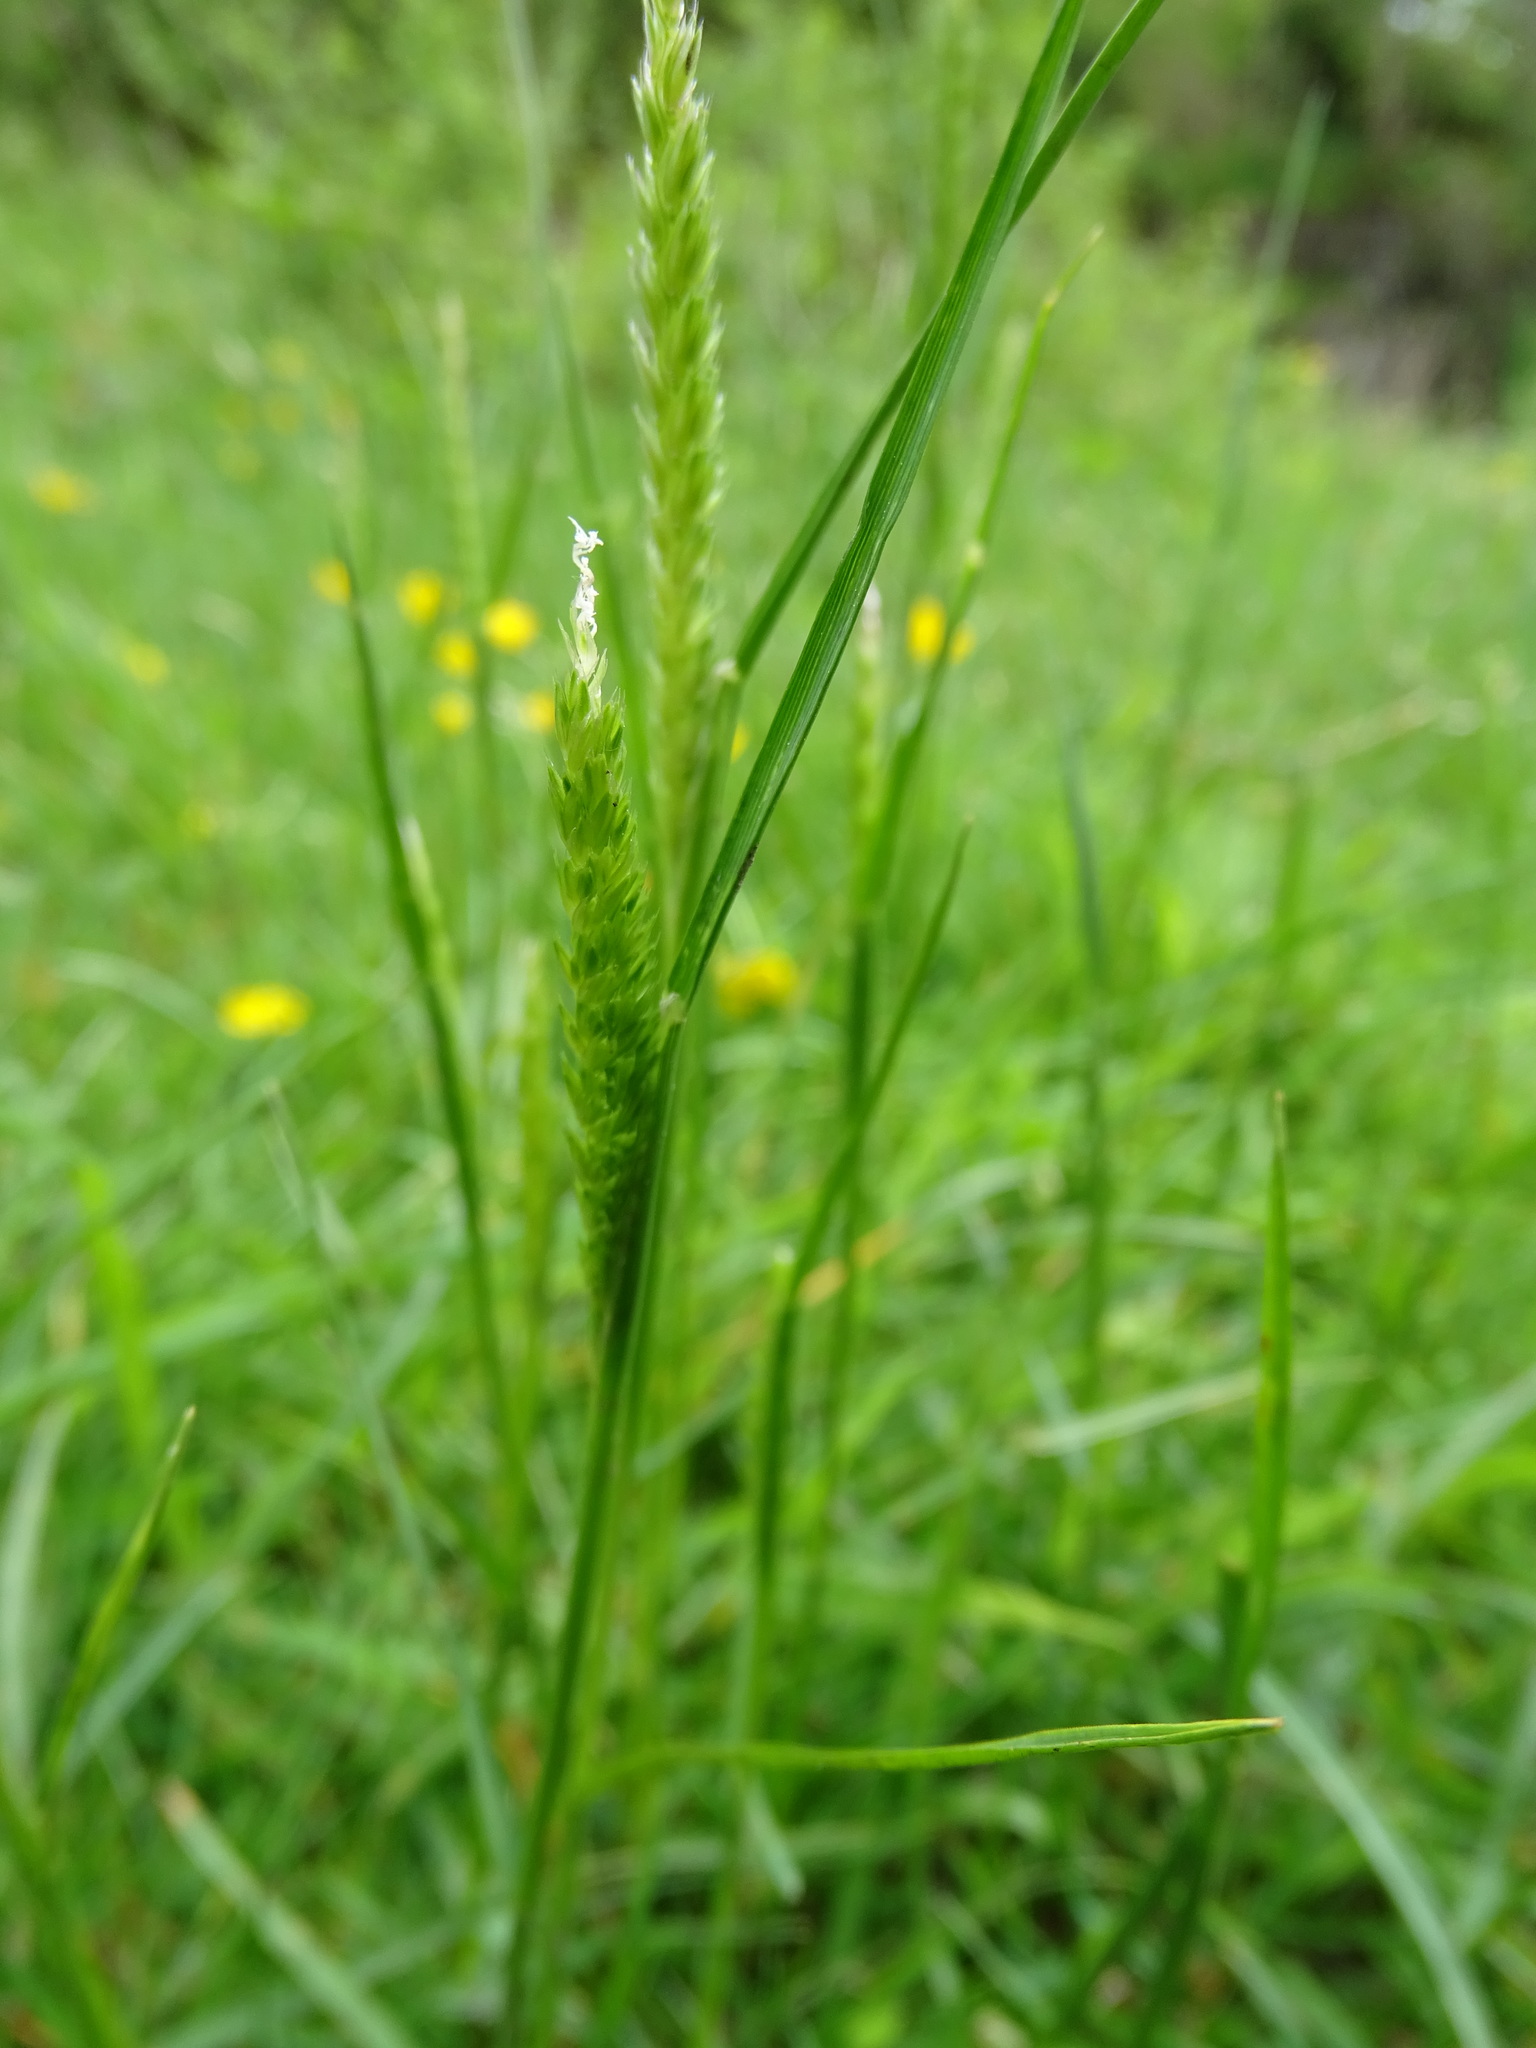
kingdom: Plantae
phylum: Tracheophyta
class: Liliopsida
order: Poales
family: Poaceae
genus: Cynosurus
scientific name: Cynosurus cristatus
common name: Crested dog's-tail
